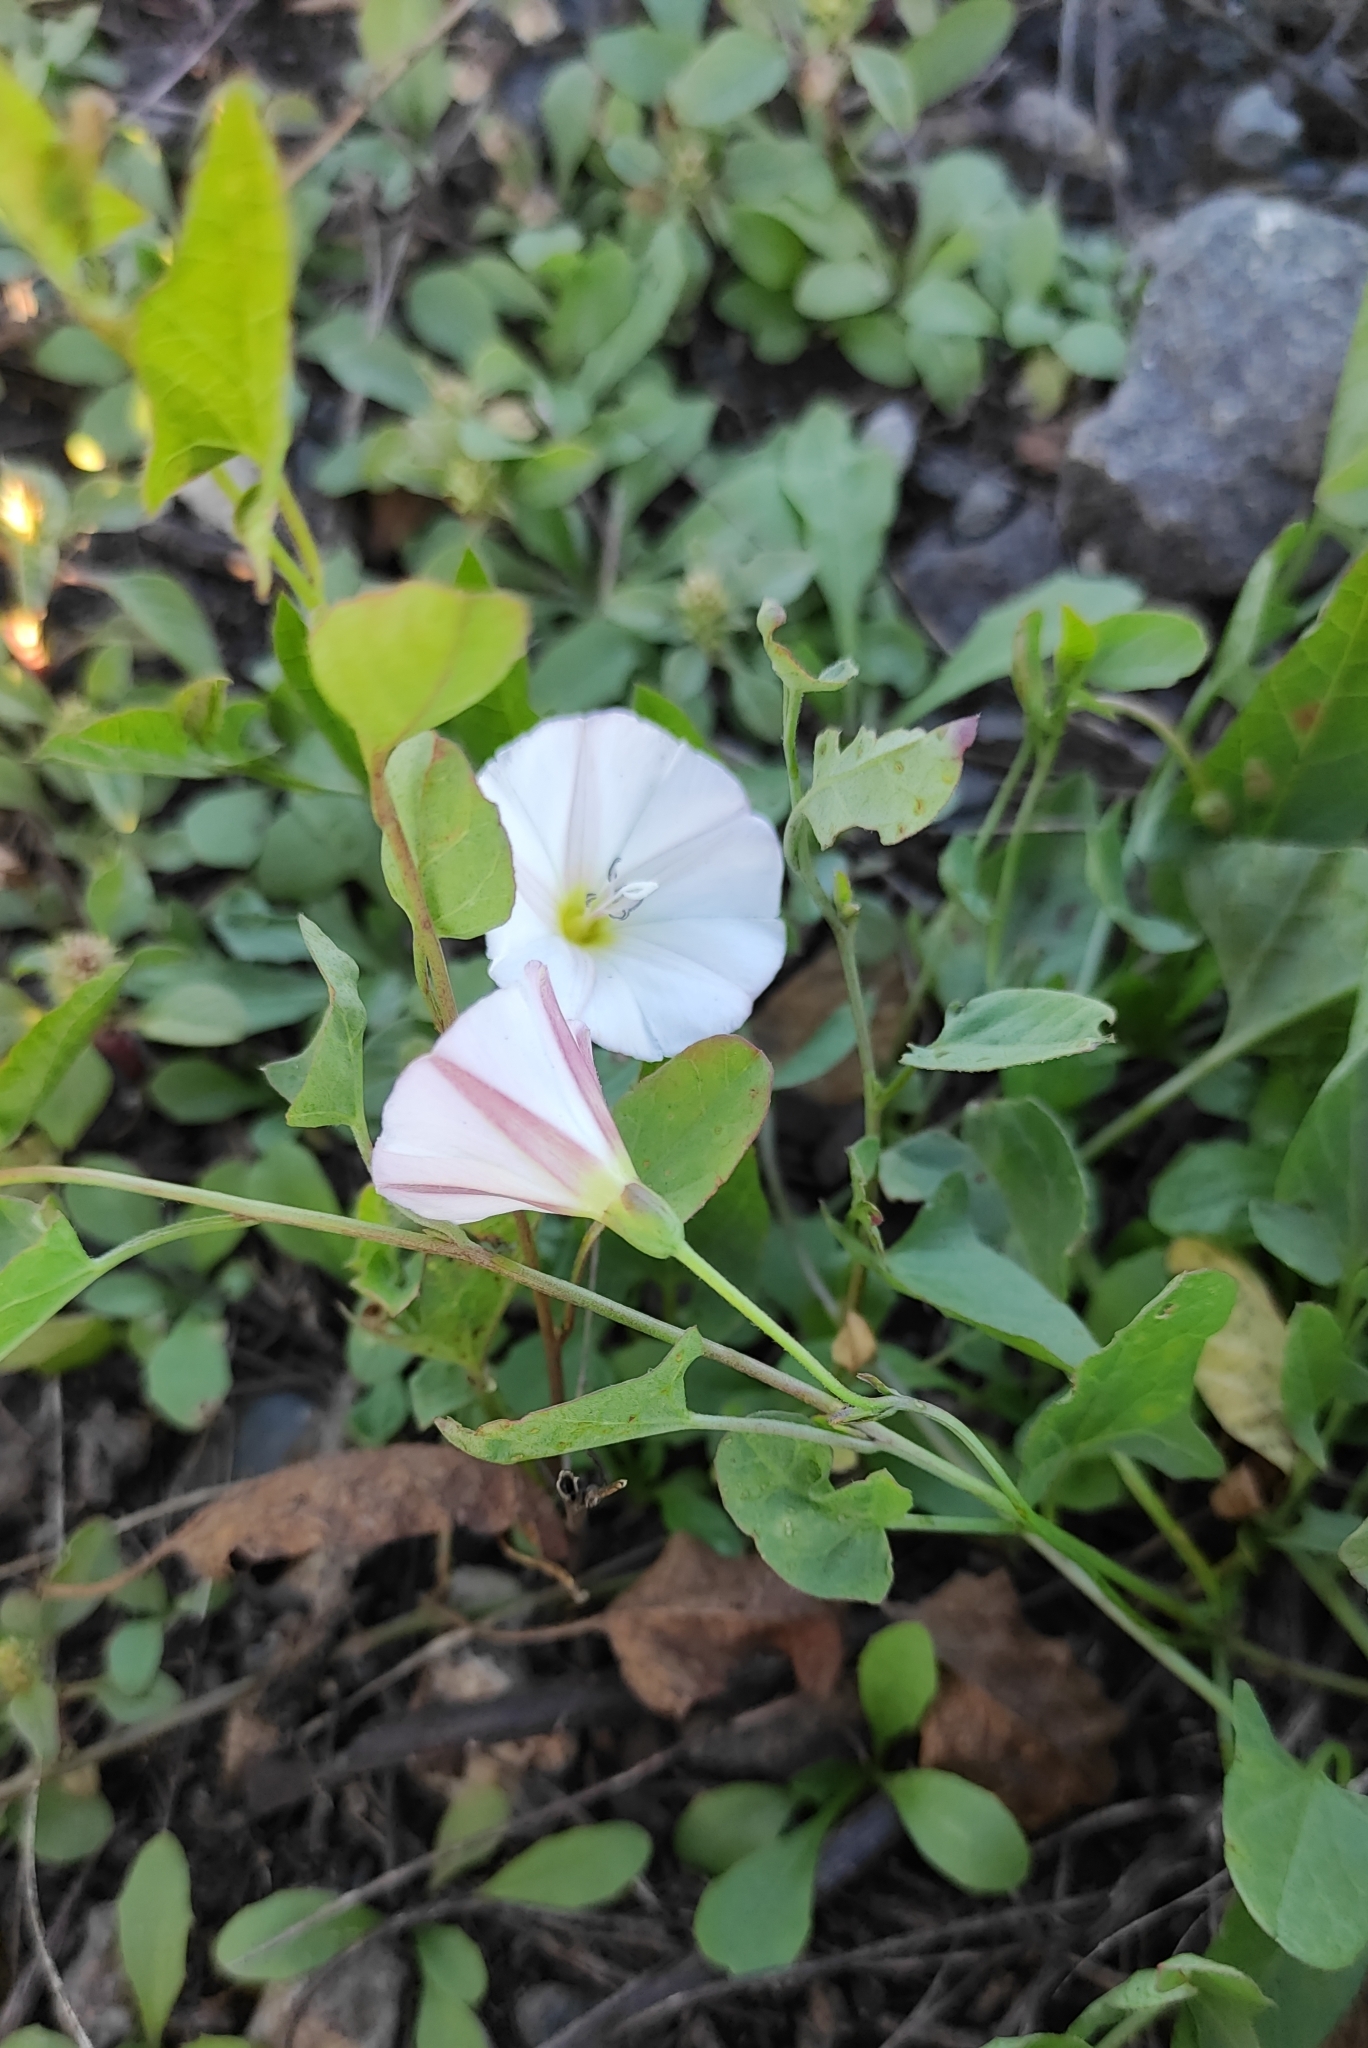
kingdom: Plantae
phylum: Tracheophyta
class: Magnoliopsida
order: Solanales
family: Convolvulaceae
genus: Convolvulus
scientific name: Convolvulus arvensis
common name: Field bindweed
